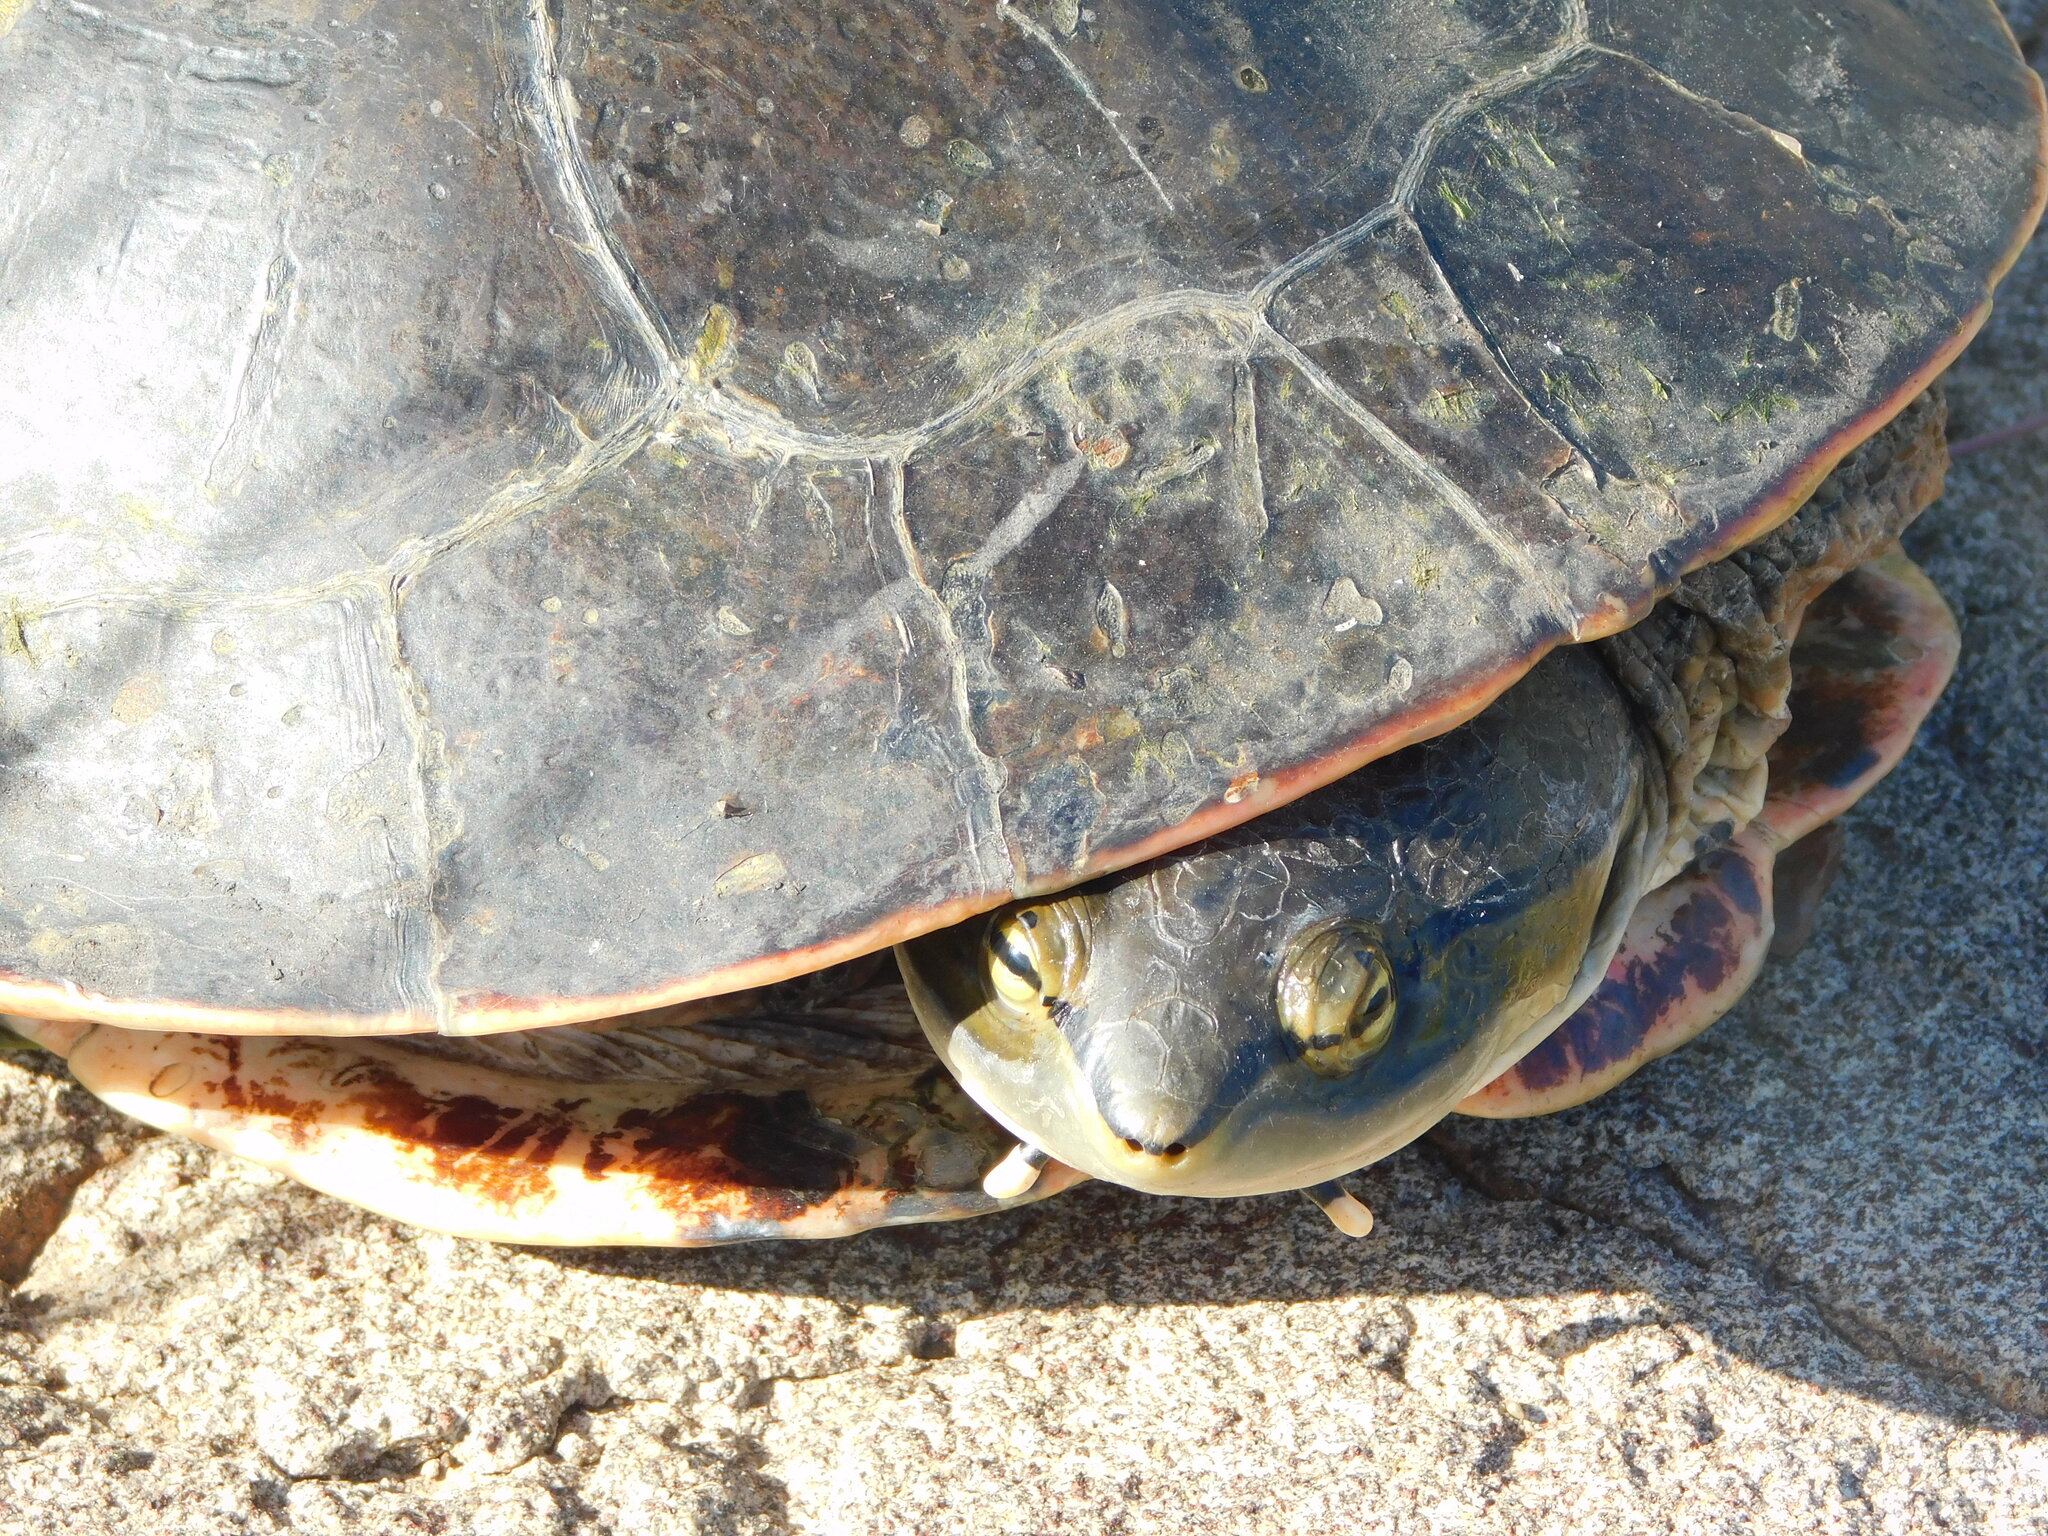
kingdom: Animalia
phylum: Chordata
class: Testudines
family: Chelidae
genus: Phrynops
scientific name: Phrynops hilarii
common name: Side-necked turtle of saint hillaire
